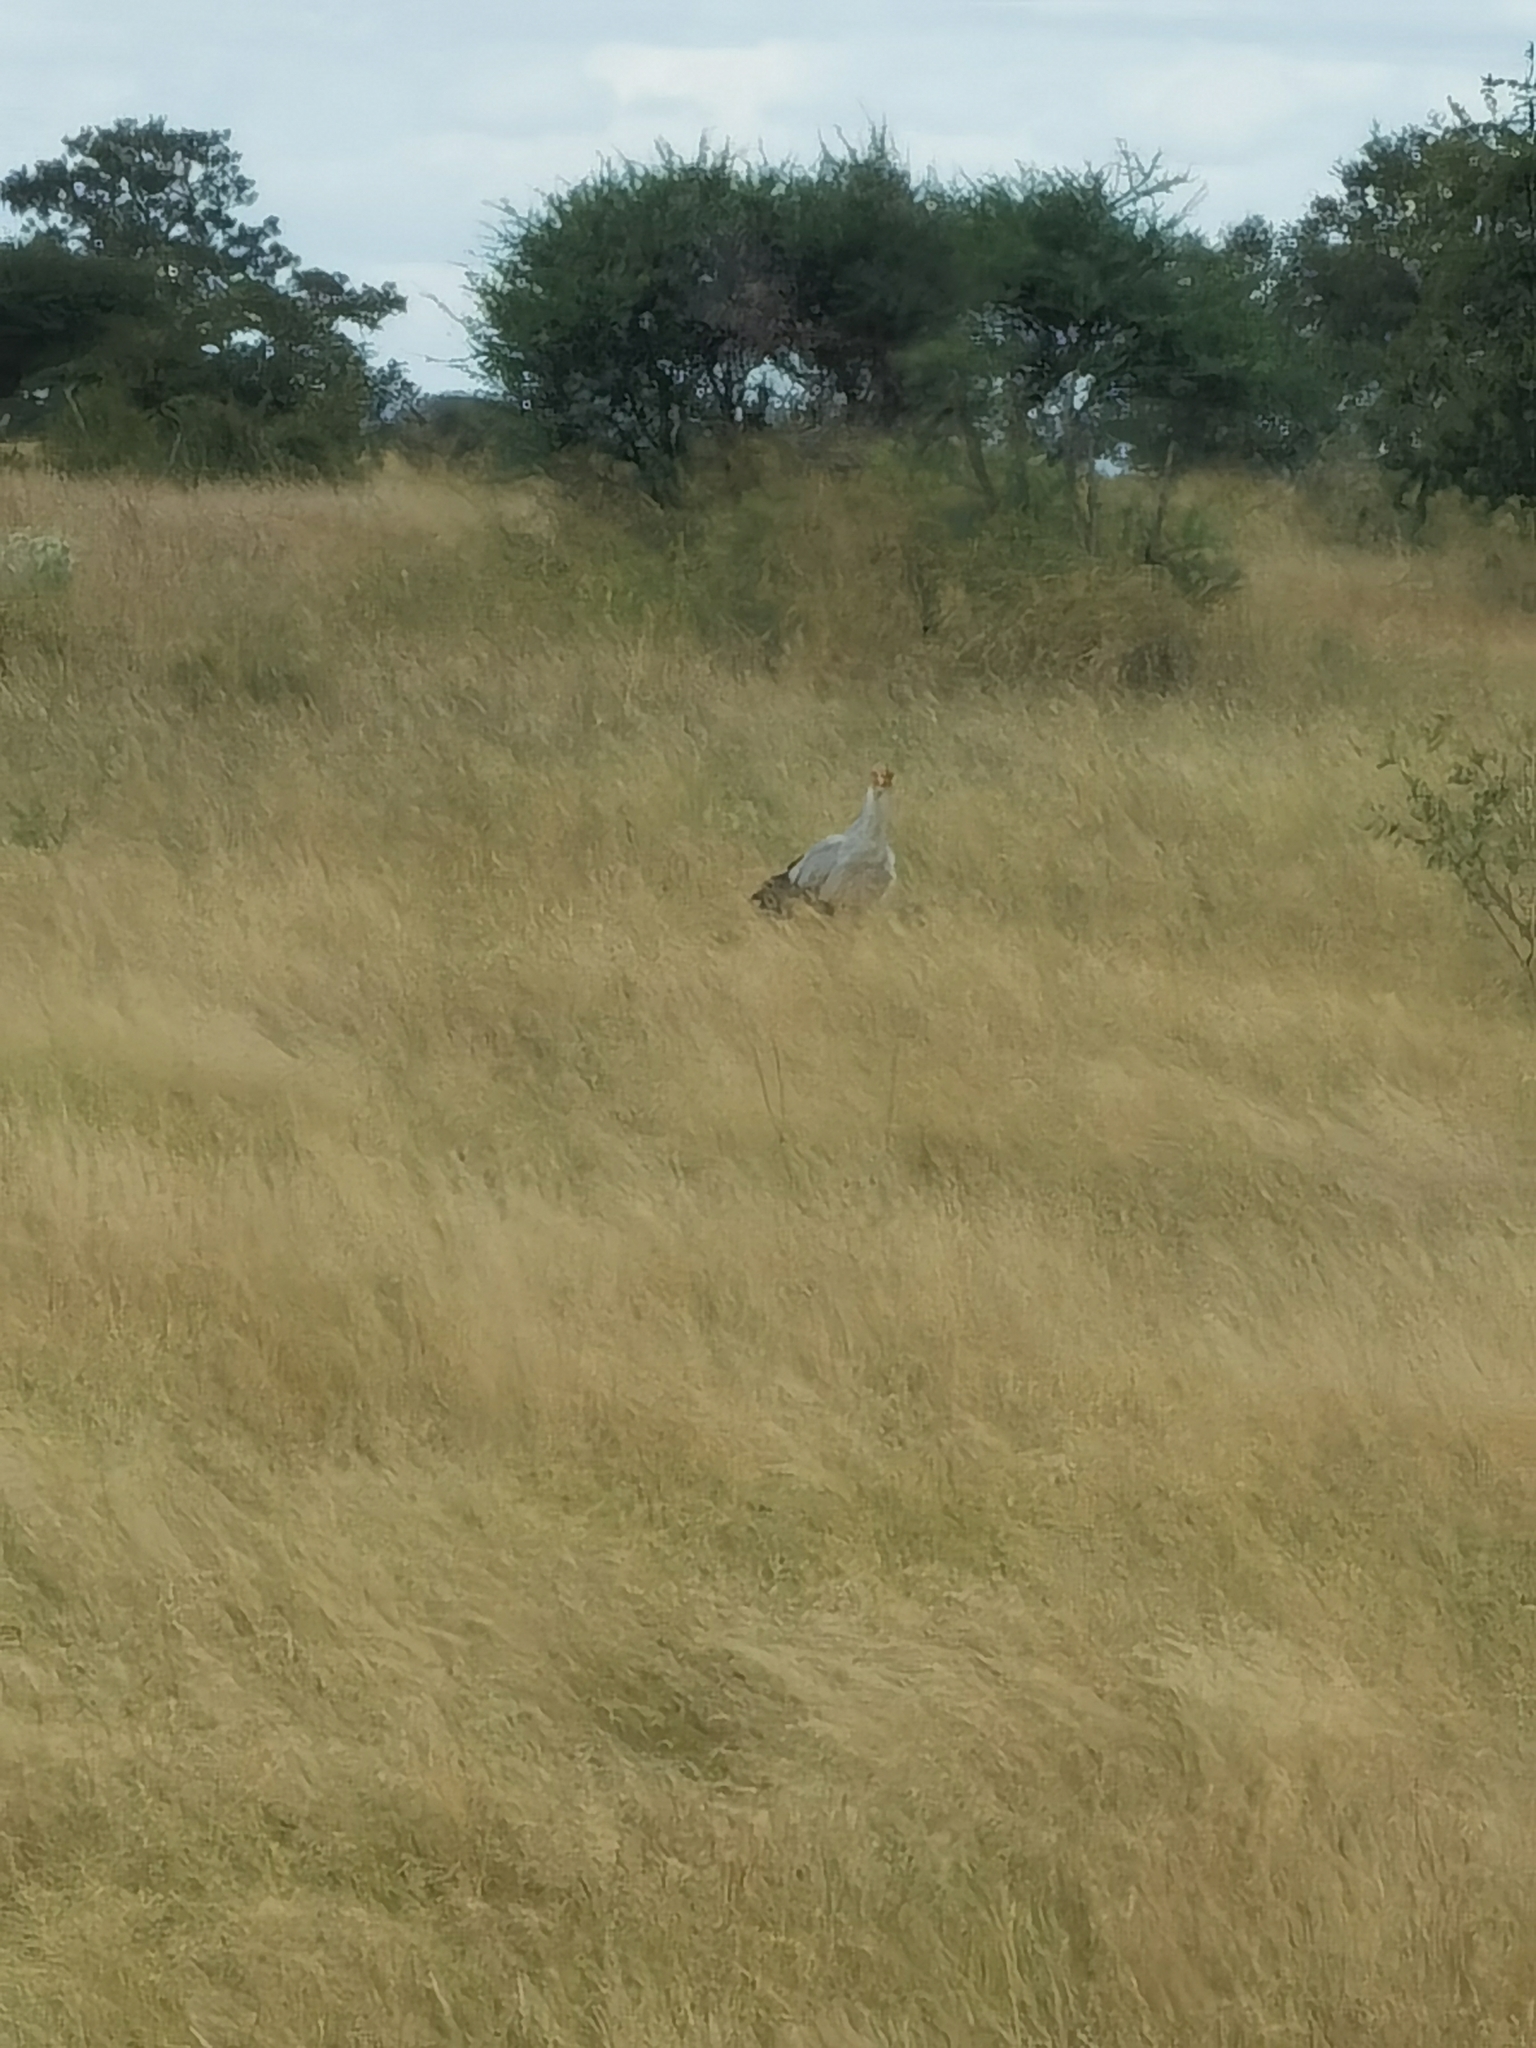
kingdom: Animalia
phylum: Chordata
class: Aves
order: Accipitriformes
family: Sagittariidae
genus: Sagittarius
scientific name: Sagittarius serpentarius
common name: Secretarybird
